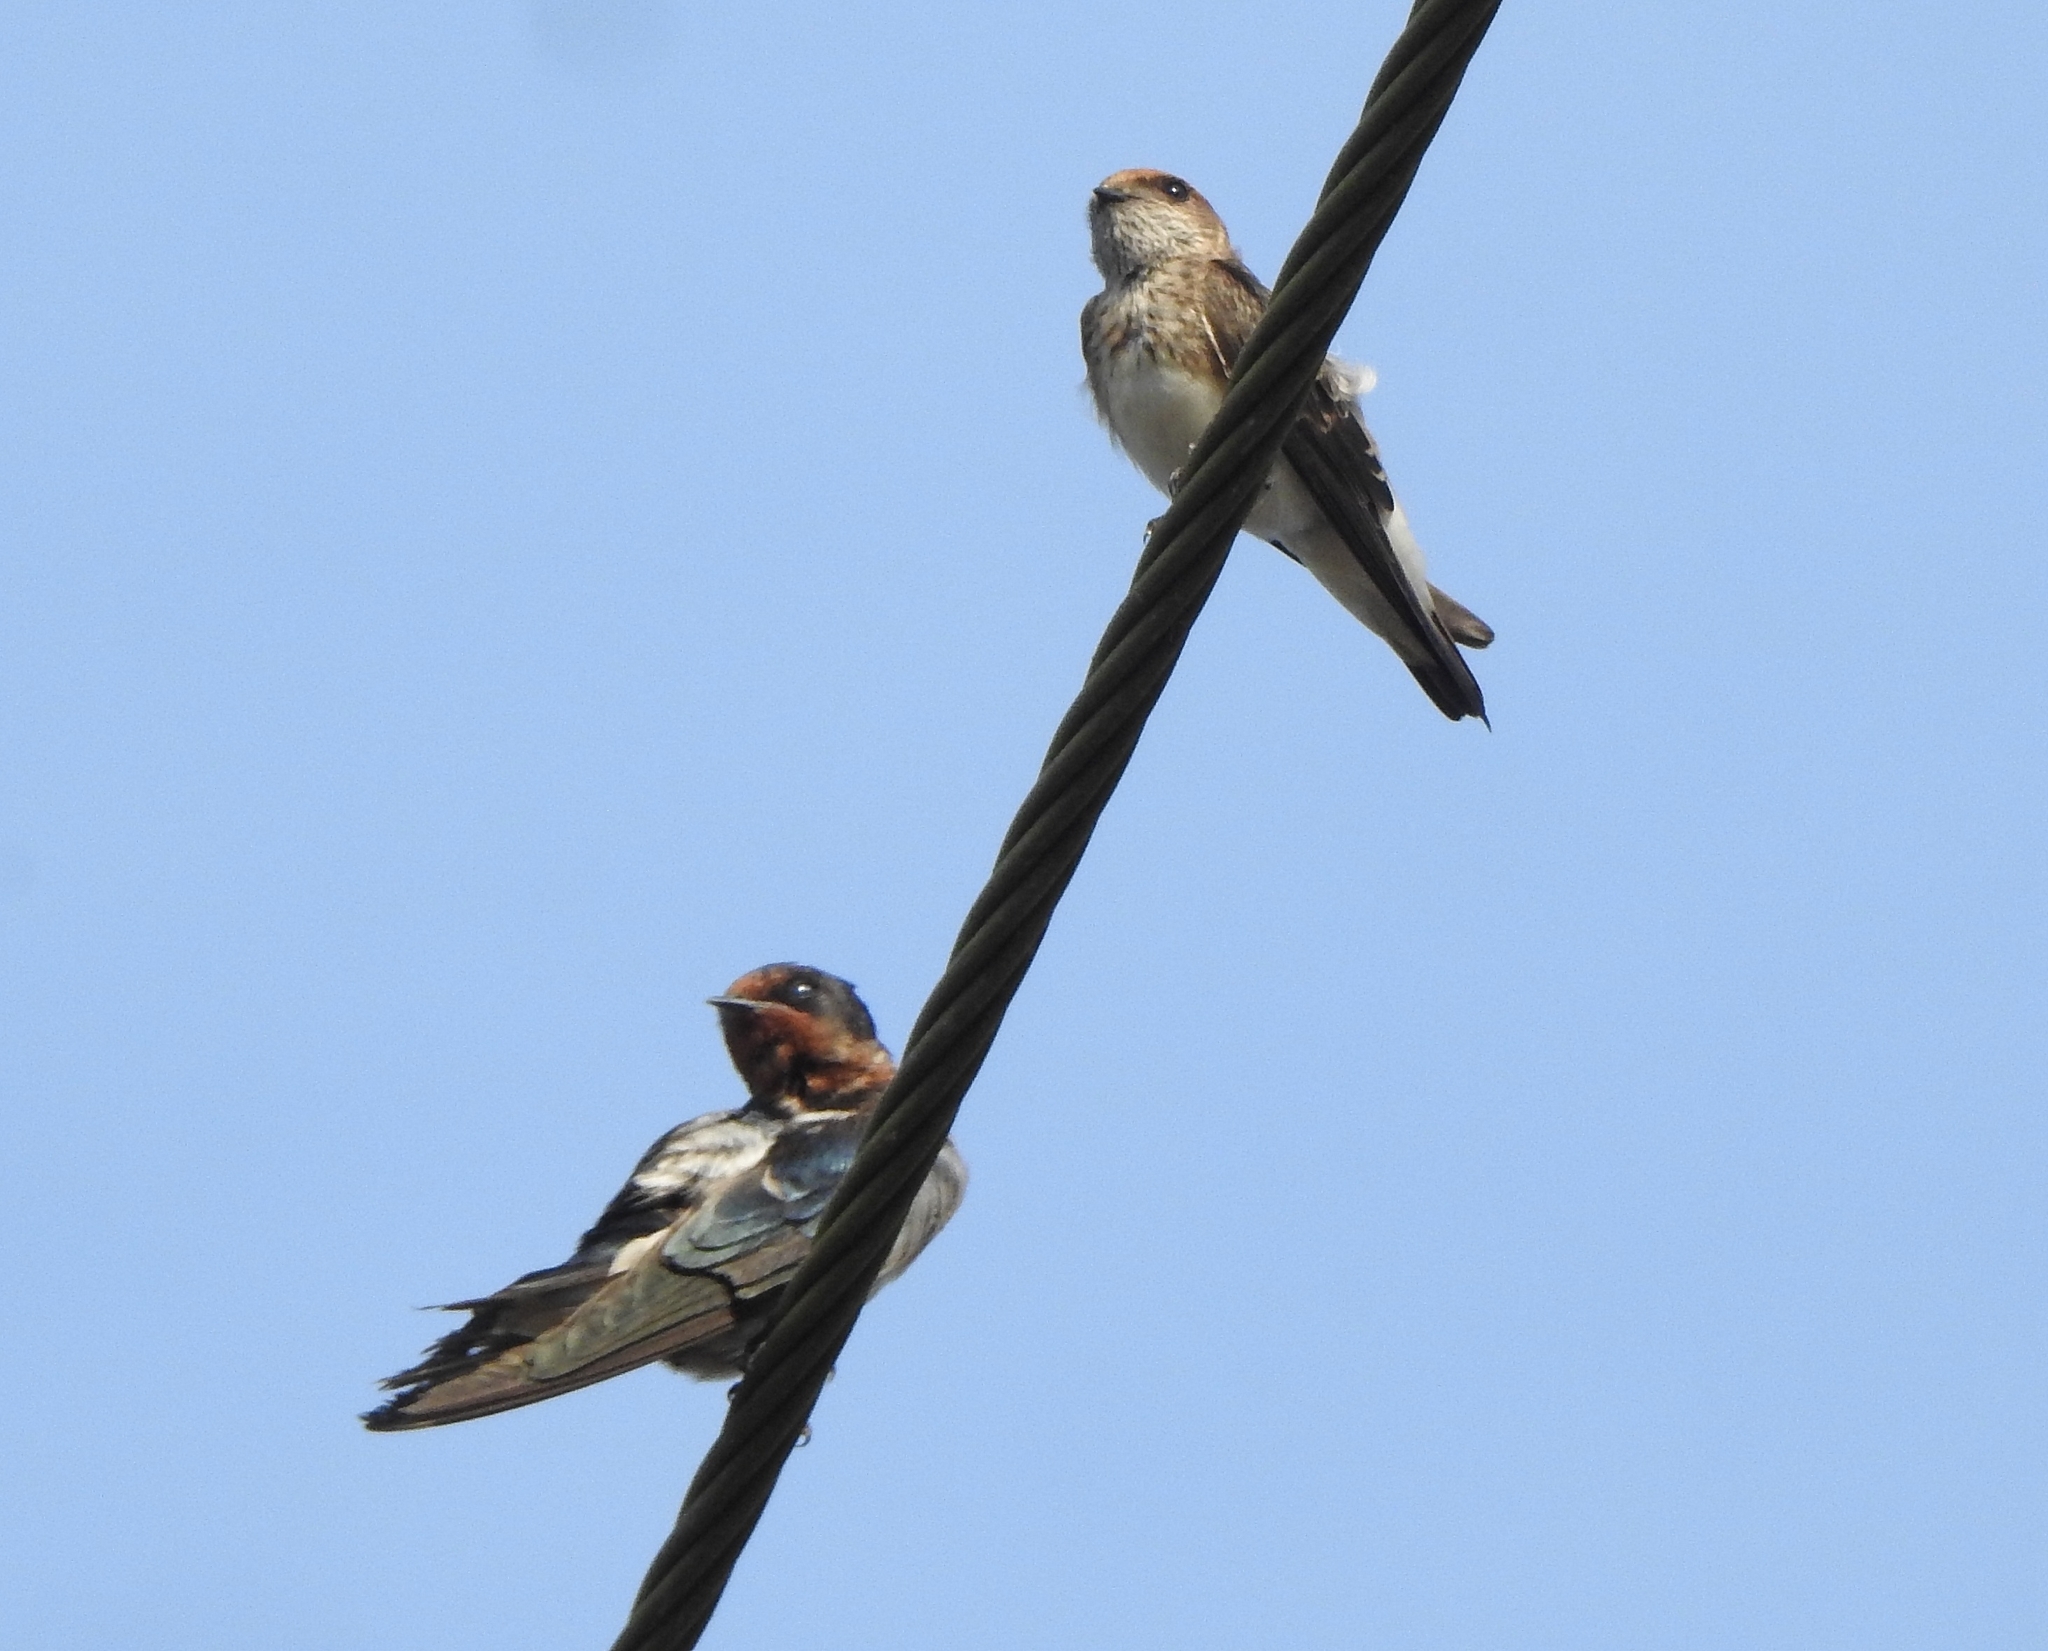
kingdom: Animalia
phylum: Chordata
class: Aves
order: Passeriformes
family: Hirundinidae
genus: Hirundo
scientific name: Hirundo rustica
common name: Barn swallow
